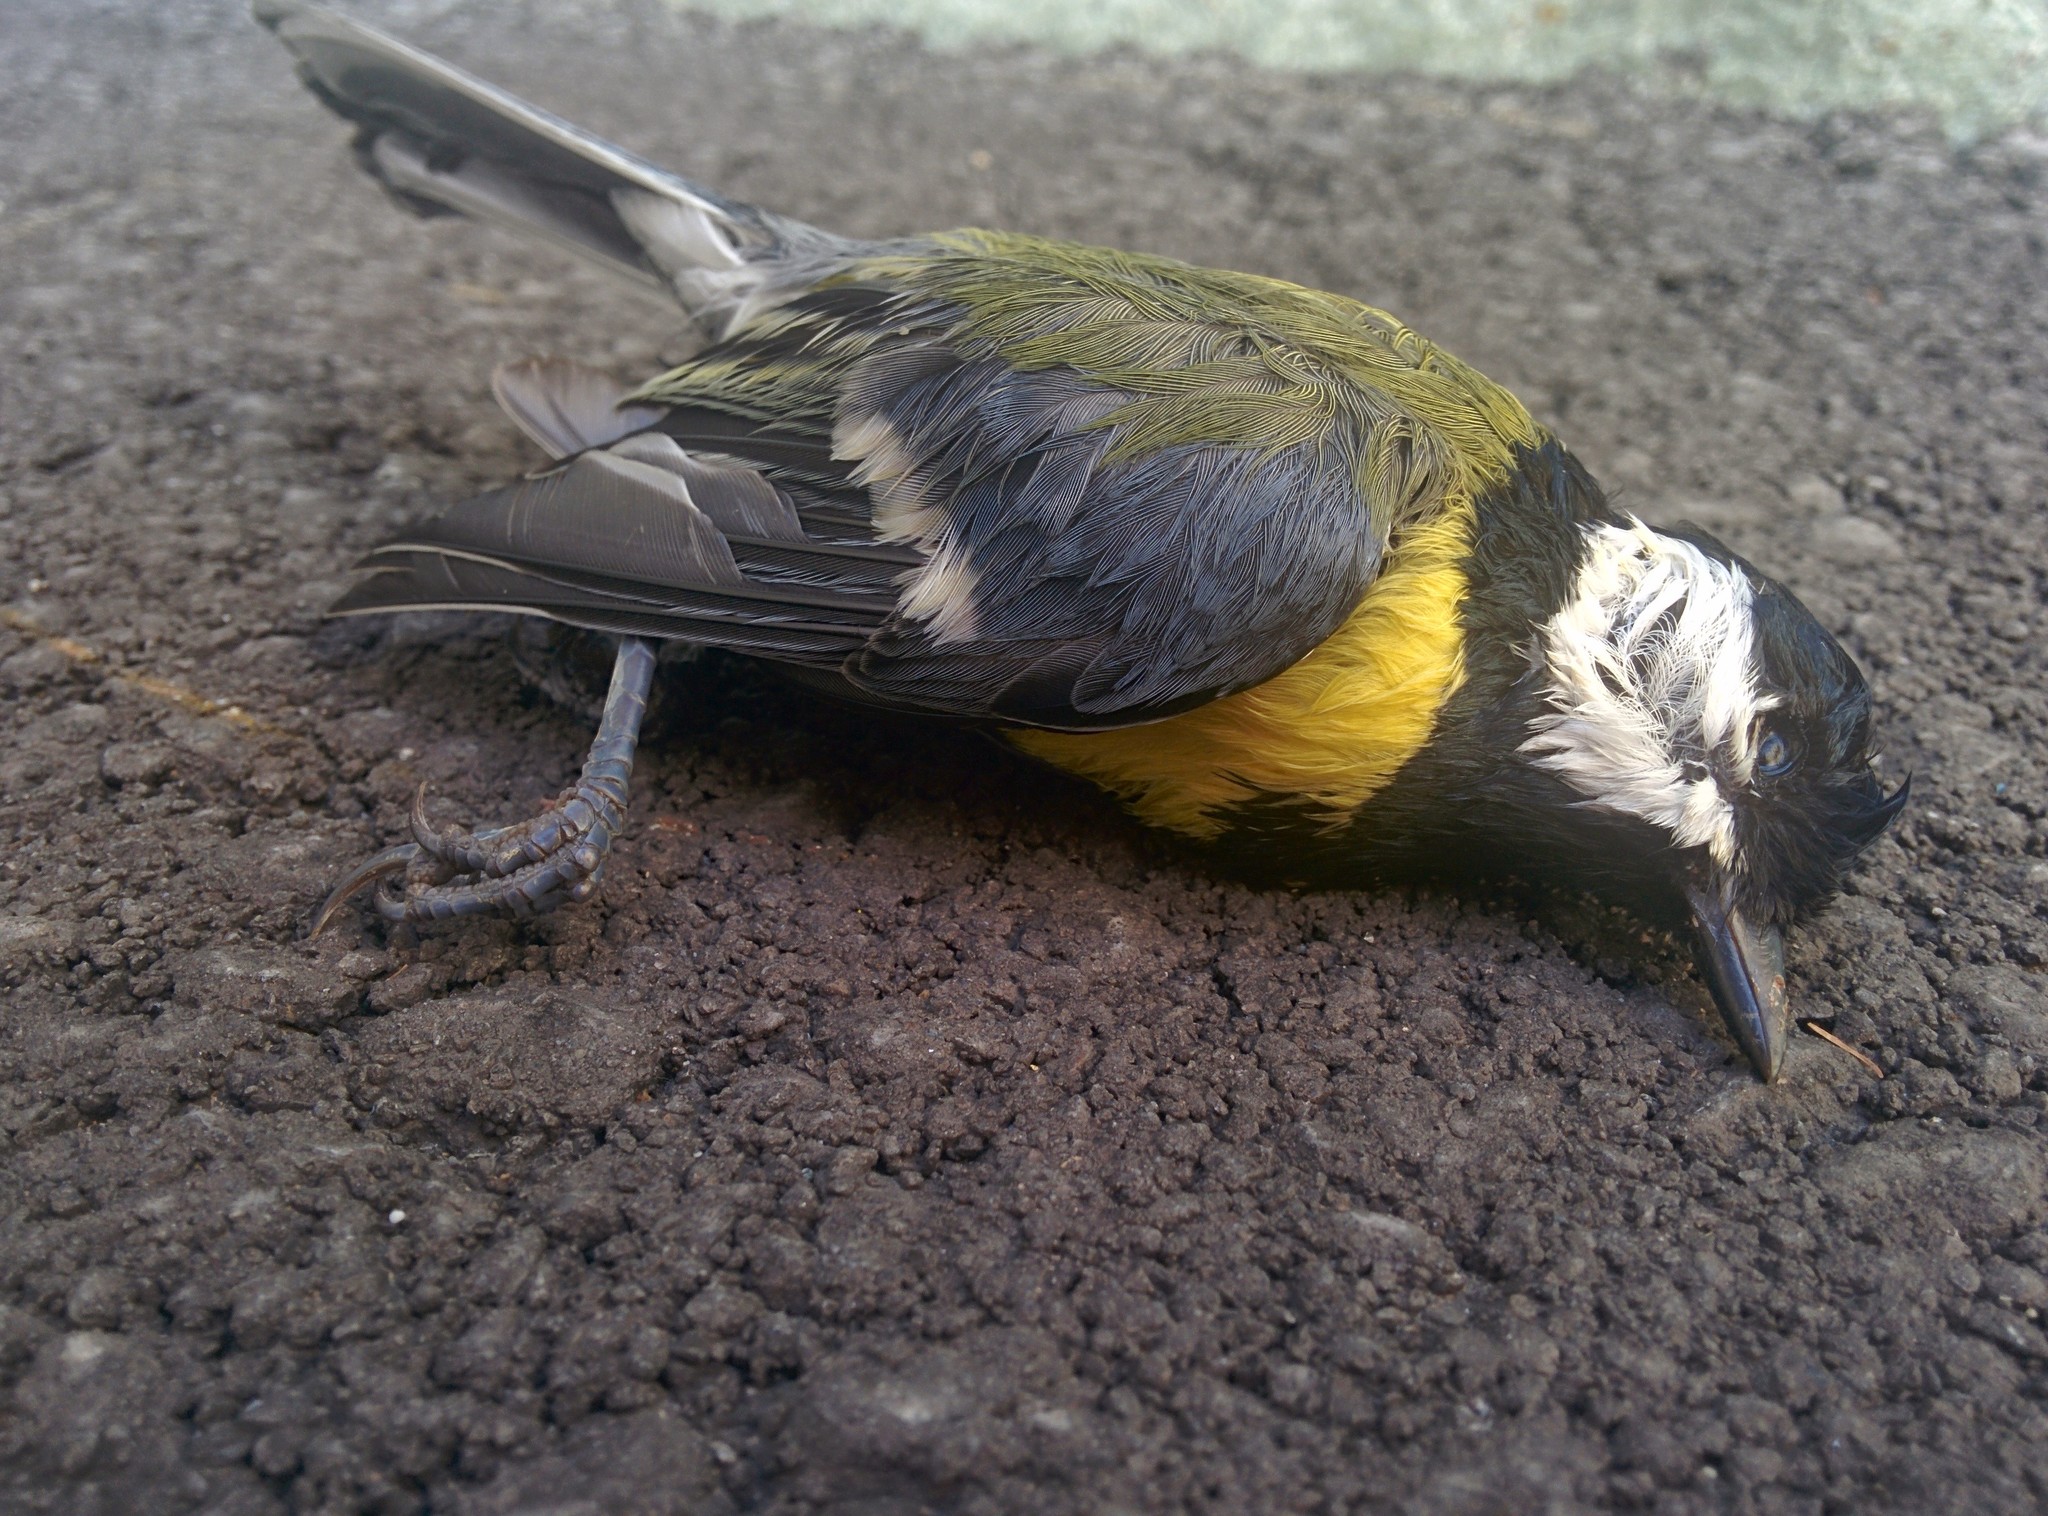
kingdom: Animalia
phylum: Chordata
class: Aves
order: Passeriformes
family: Paridae
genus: Parus
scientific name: Parus major
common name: Great tit
